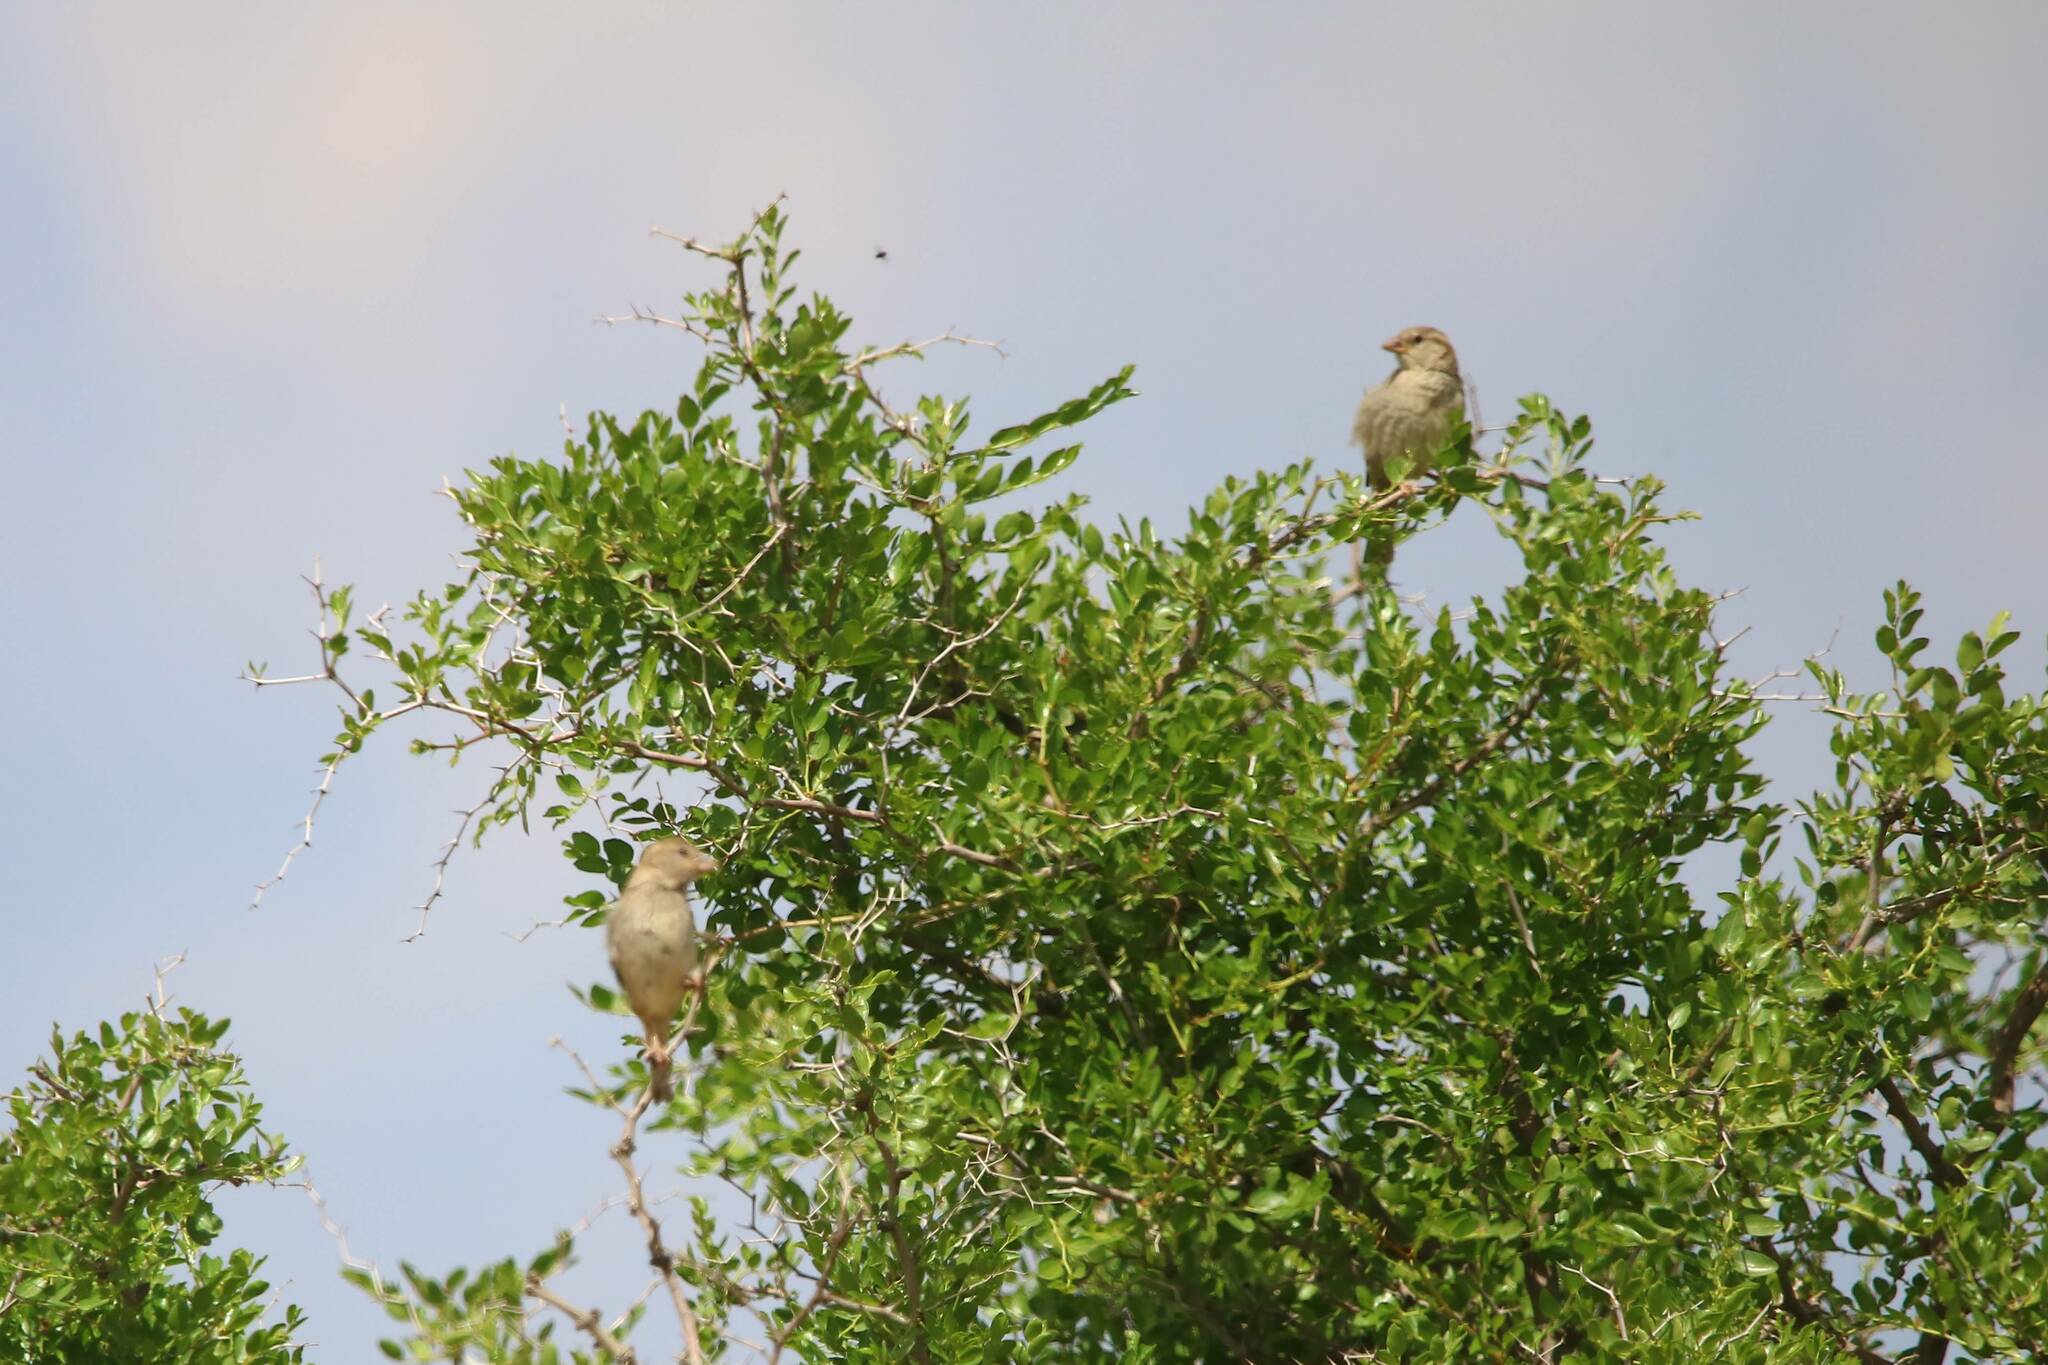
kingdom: Animalia
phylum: Chordata
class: Aves
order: Passeriformes
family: Passeridae
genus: Passer
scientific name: Passer hispaniolensis
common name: Spanish sparrow
